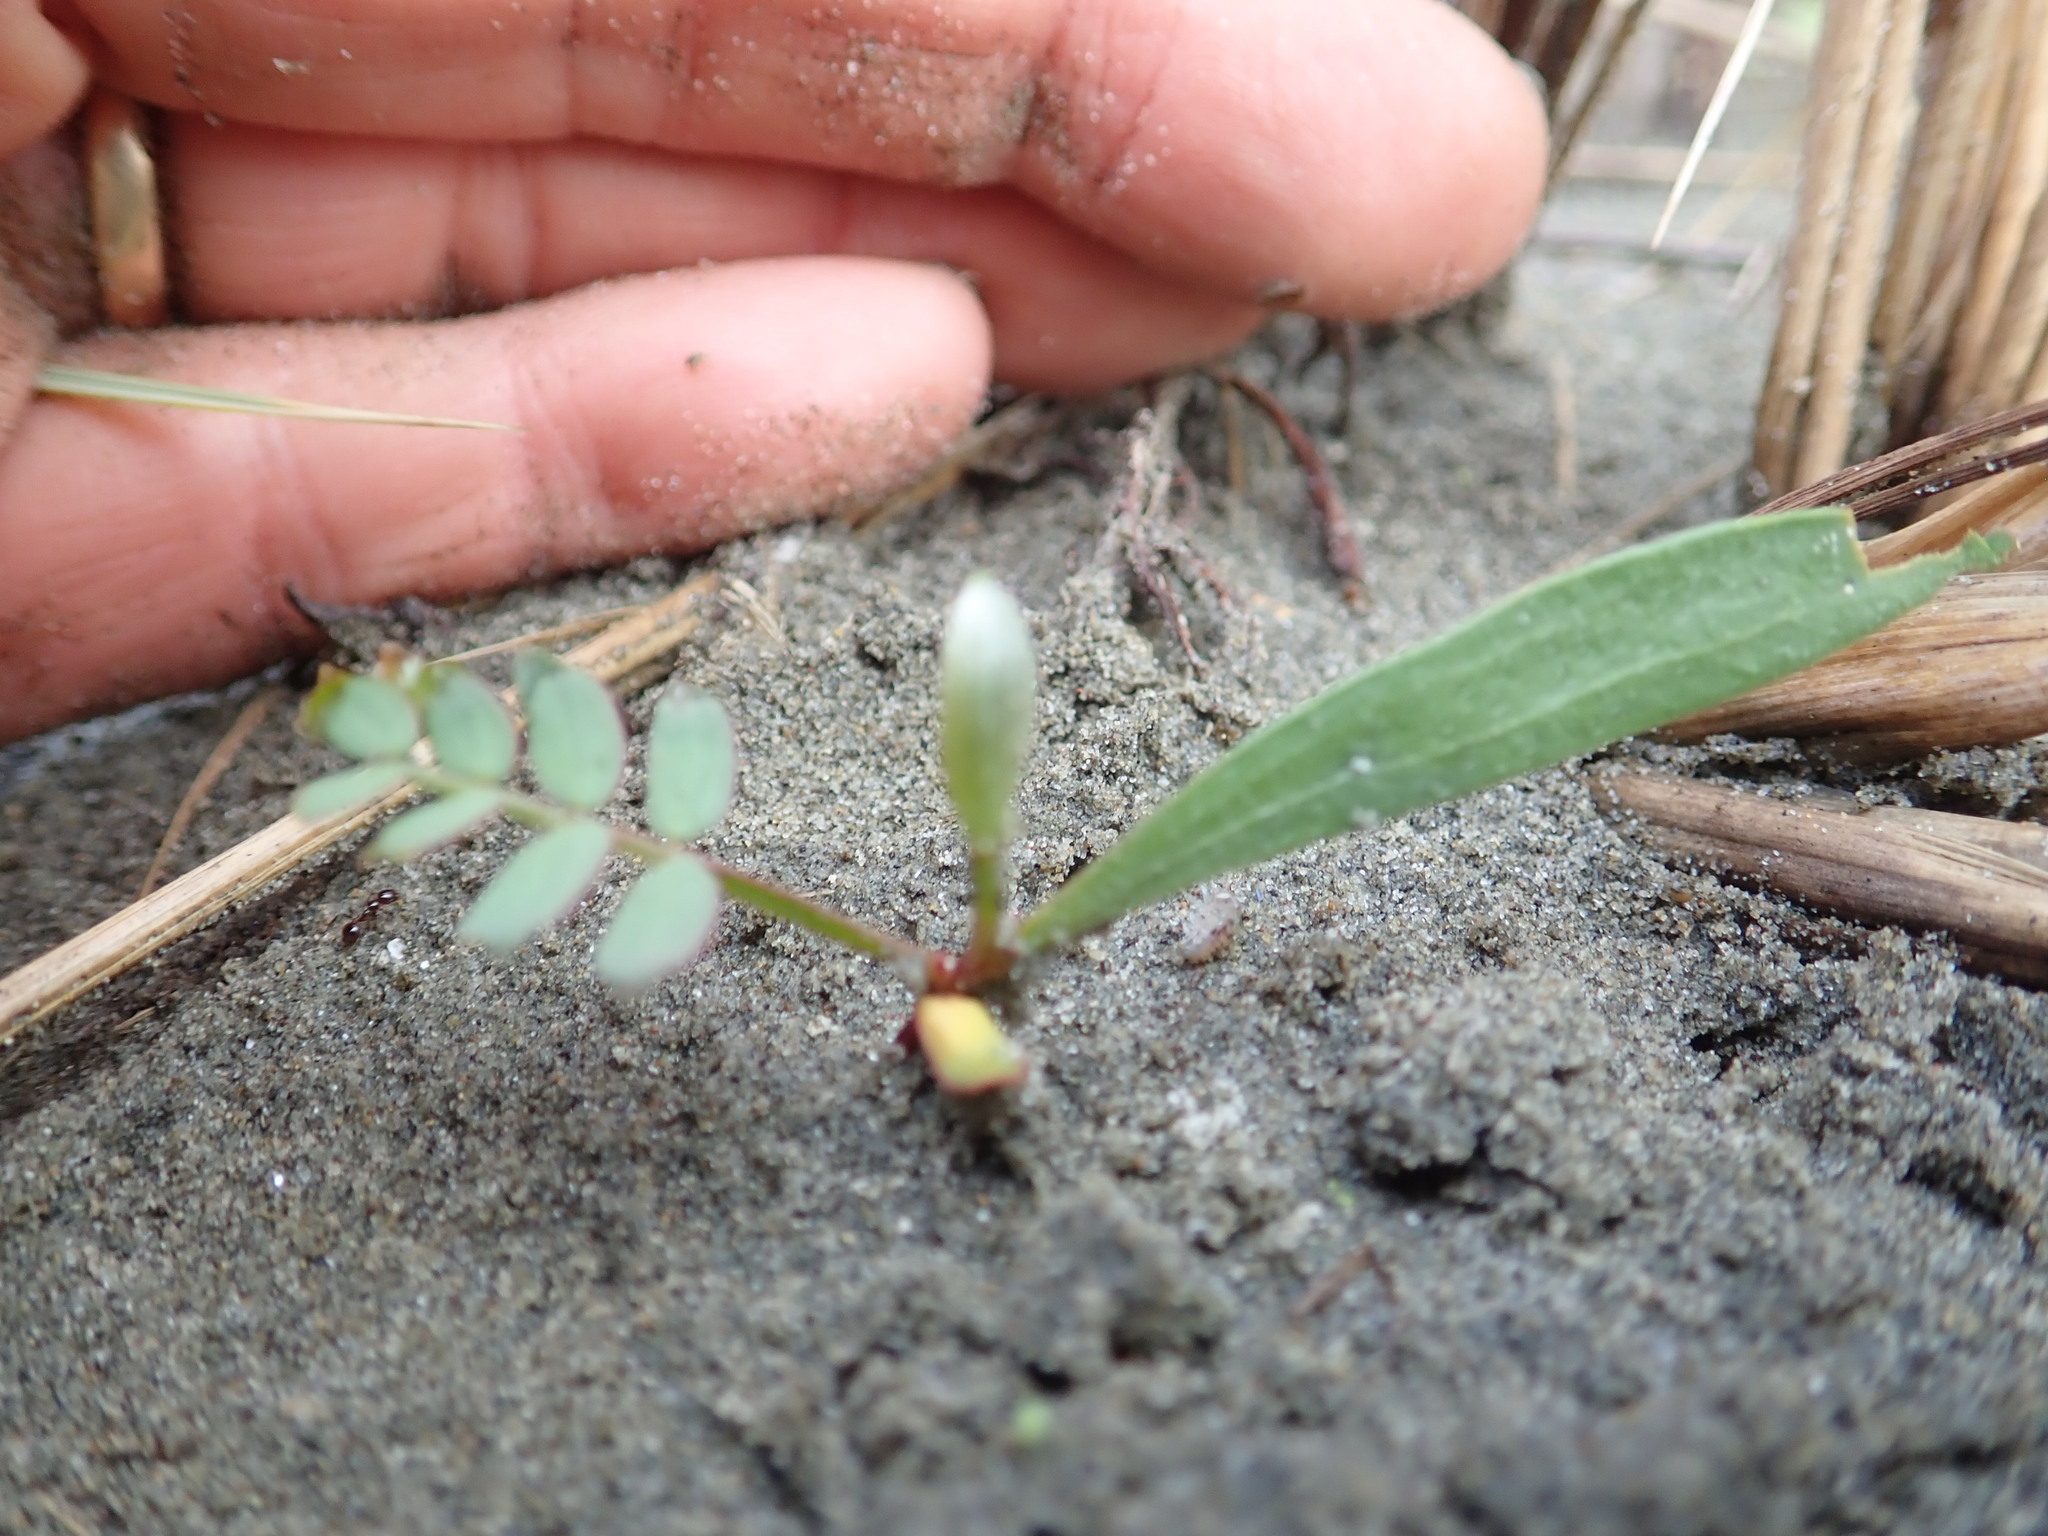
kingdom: Plantae
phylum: Tracheophyta
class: Magnoliopsida
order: Fabales
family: Fabaceae
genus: Acacia
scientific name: Acacia longifolia
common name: Sydney golden wattle
